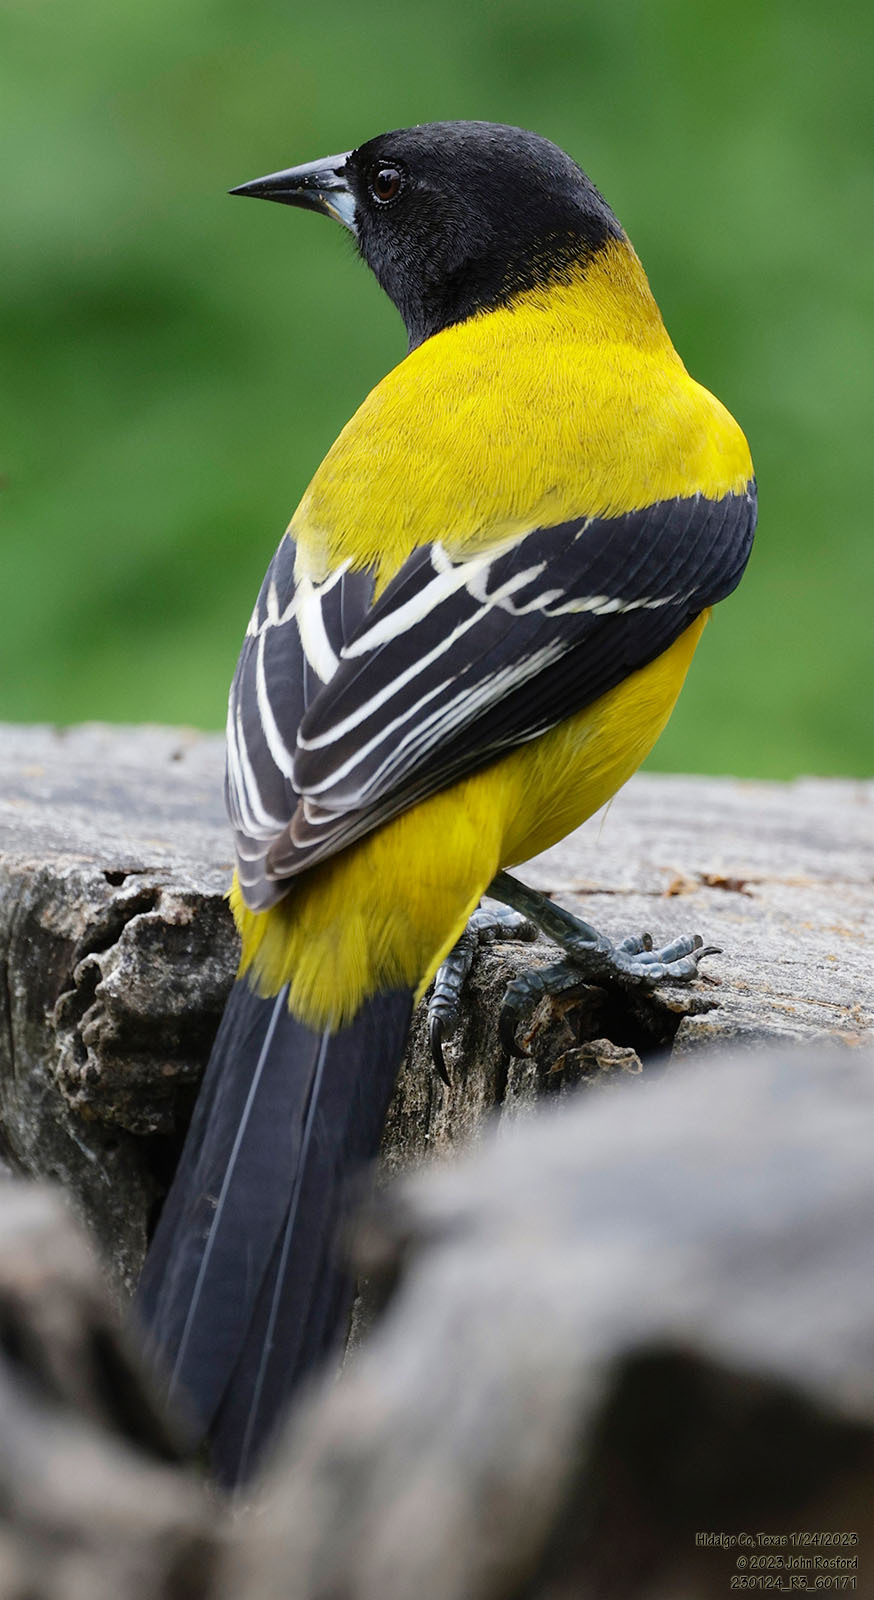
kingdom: Animalia
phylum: Chordata
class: Aves
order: Passeriformes
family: Icteridae
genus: Icterus
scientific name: Icterus graduacauda
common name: Audubon's oriole
